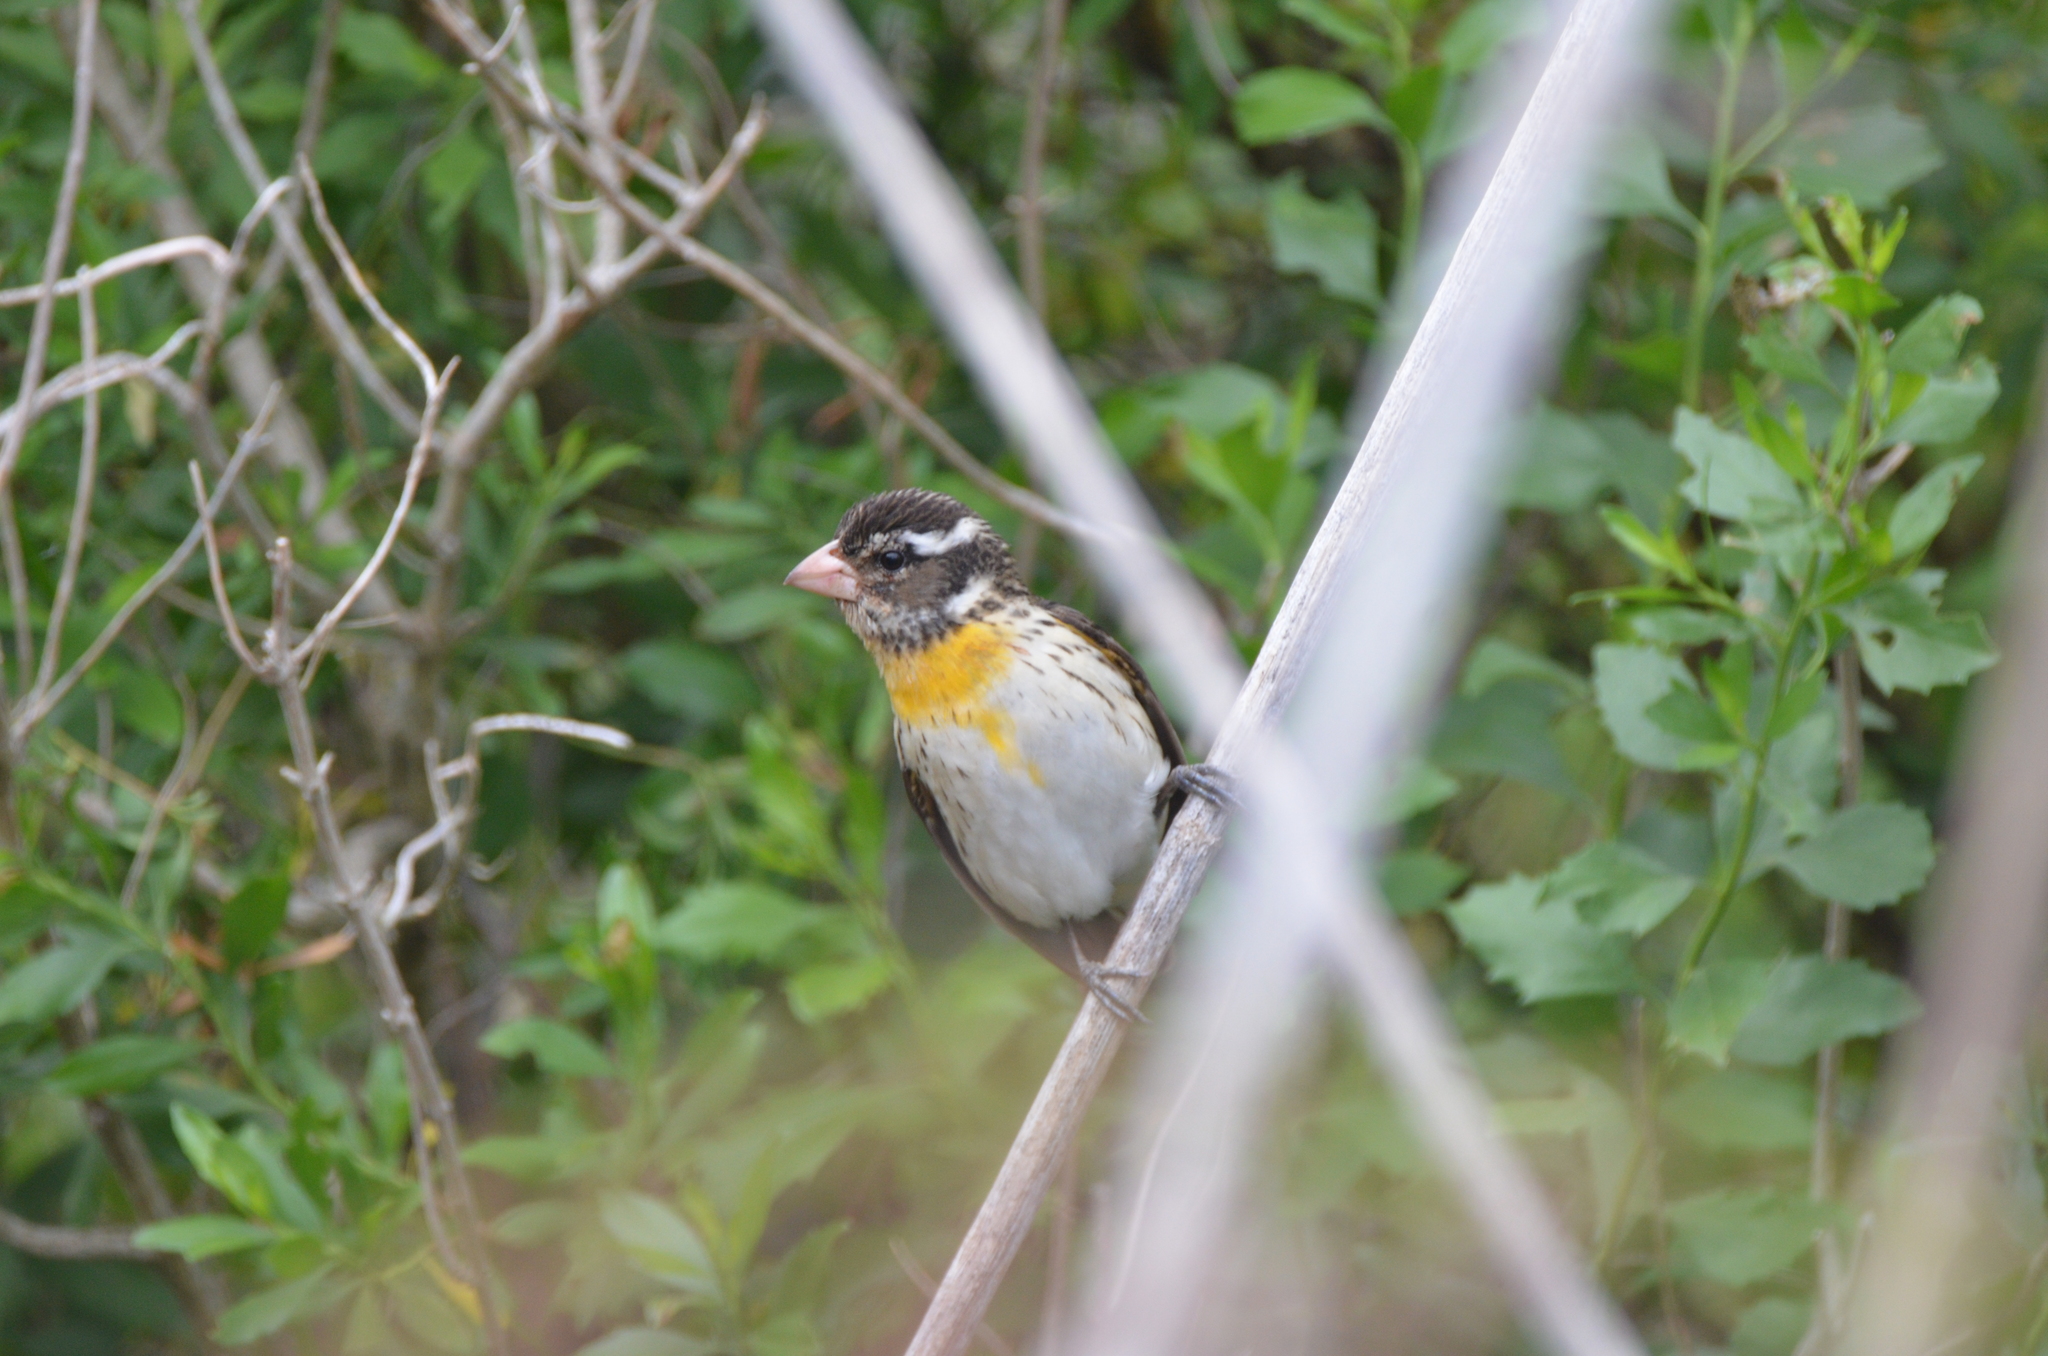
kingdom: Animalia
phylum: Chordata
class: Aves
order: Passeriformes
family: Cardinalidae
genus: Pheucticus
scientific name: Pheucticus ludovicianus
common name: Rose-breasted grosbeak
